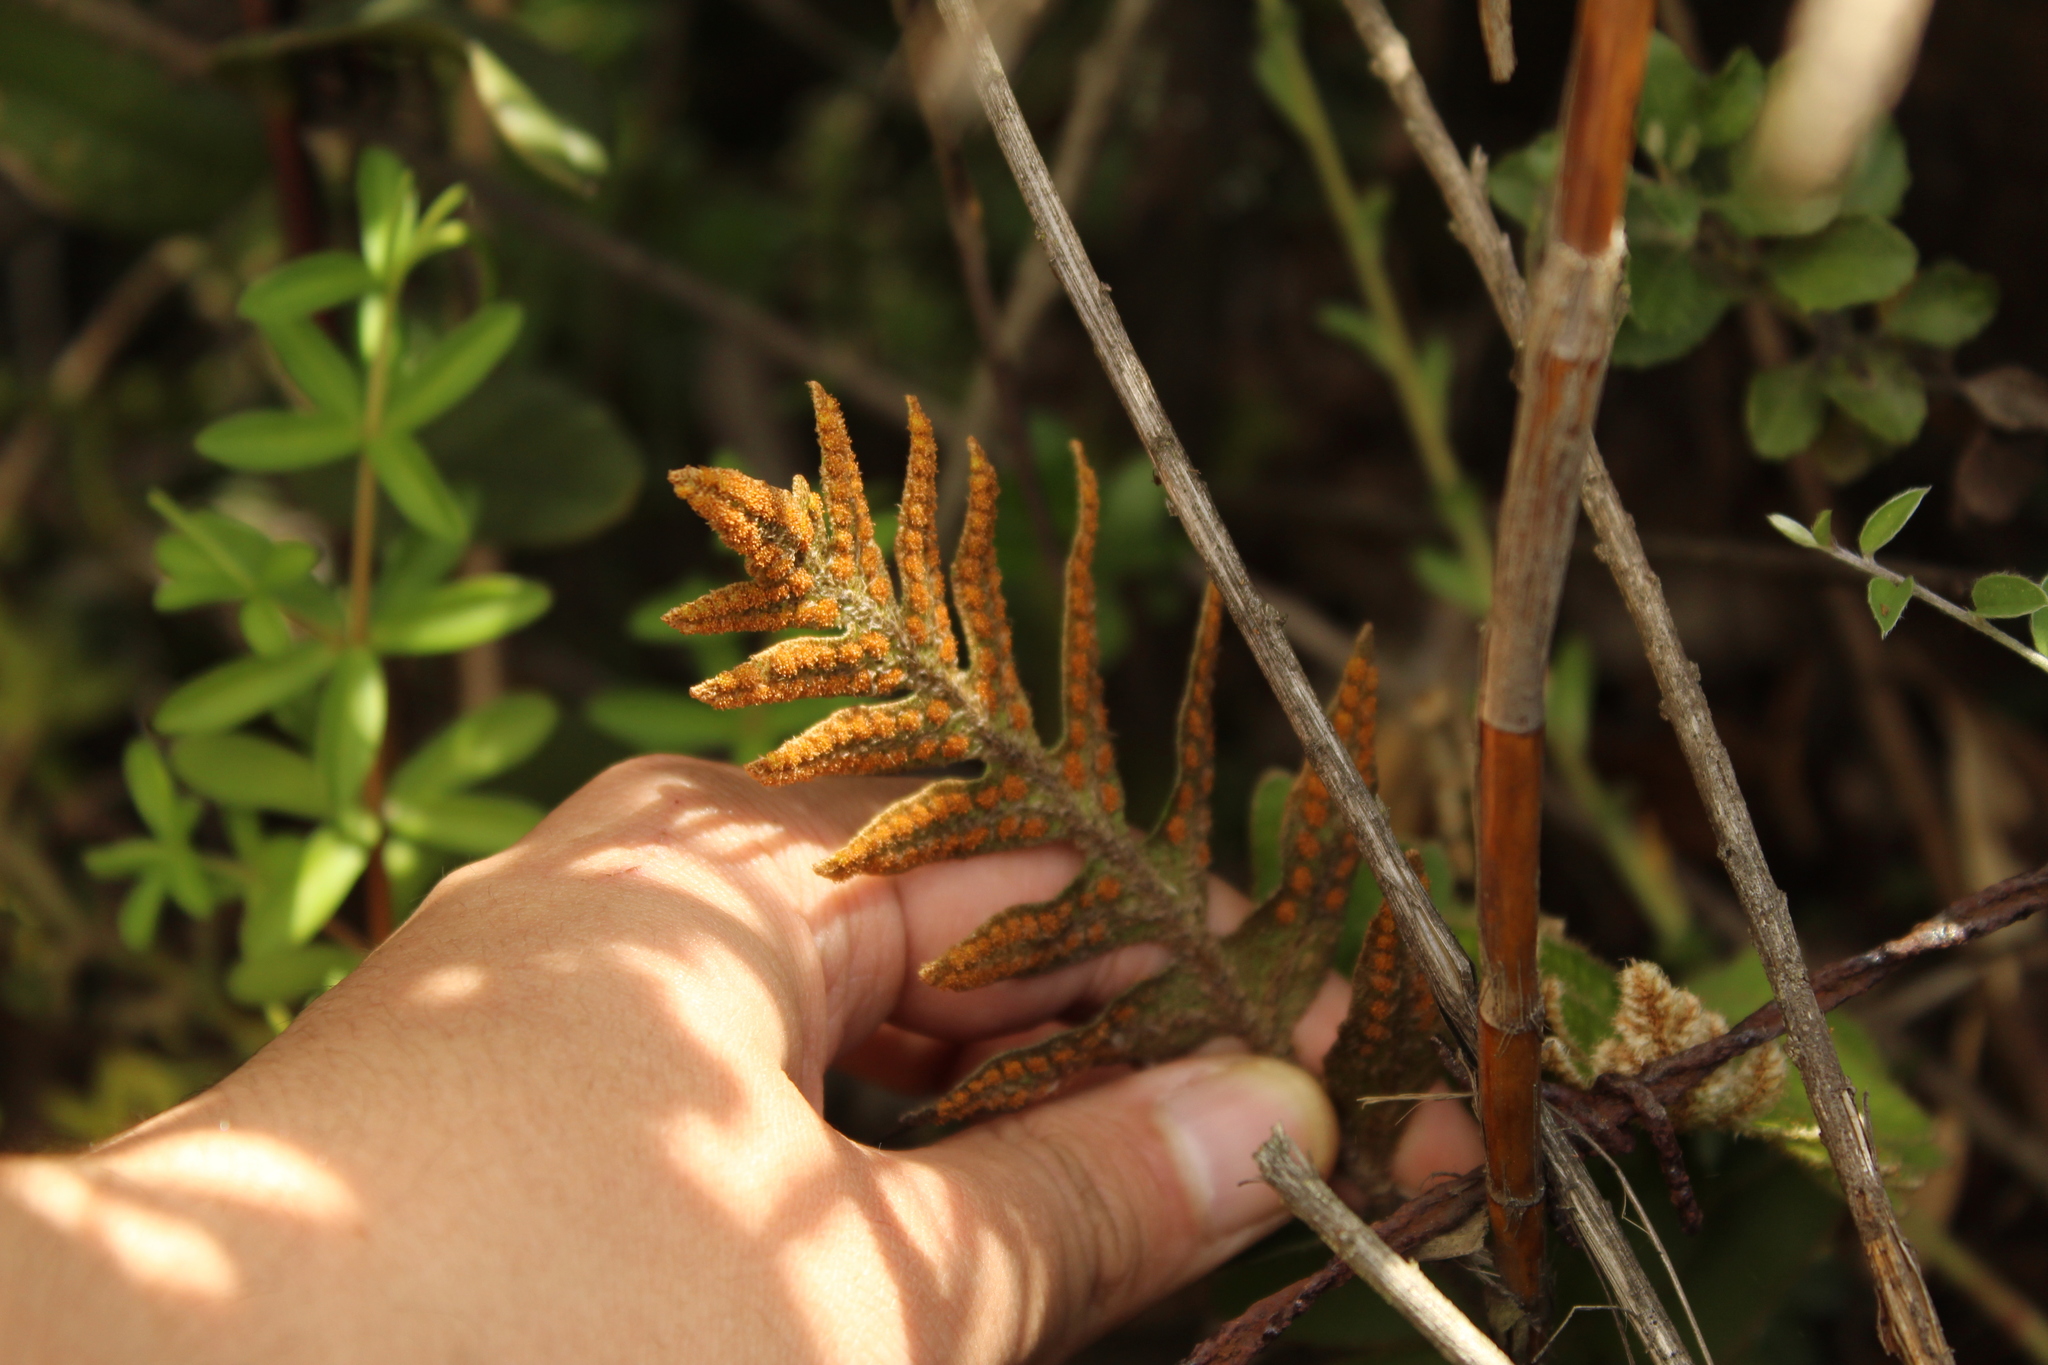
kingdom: Plantae
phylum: Tracheophyta
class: Polypodiopsida
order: Polypodiales
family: Polypodiaceae
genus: Pleopeltis
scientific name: Pleopeltis orientalis
